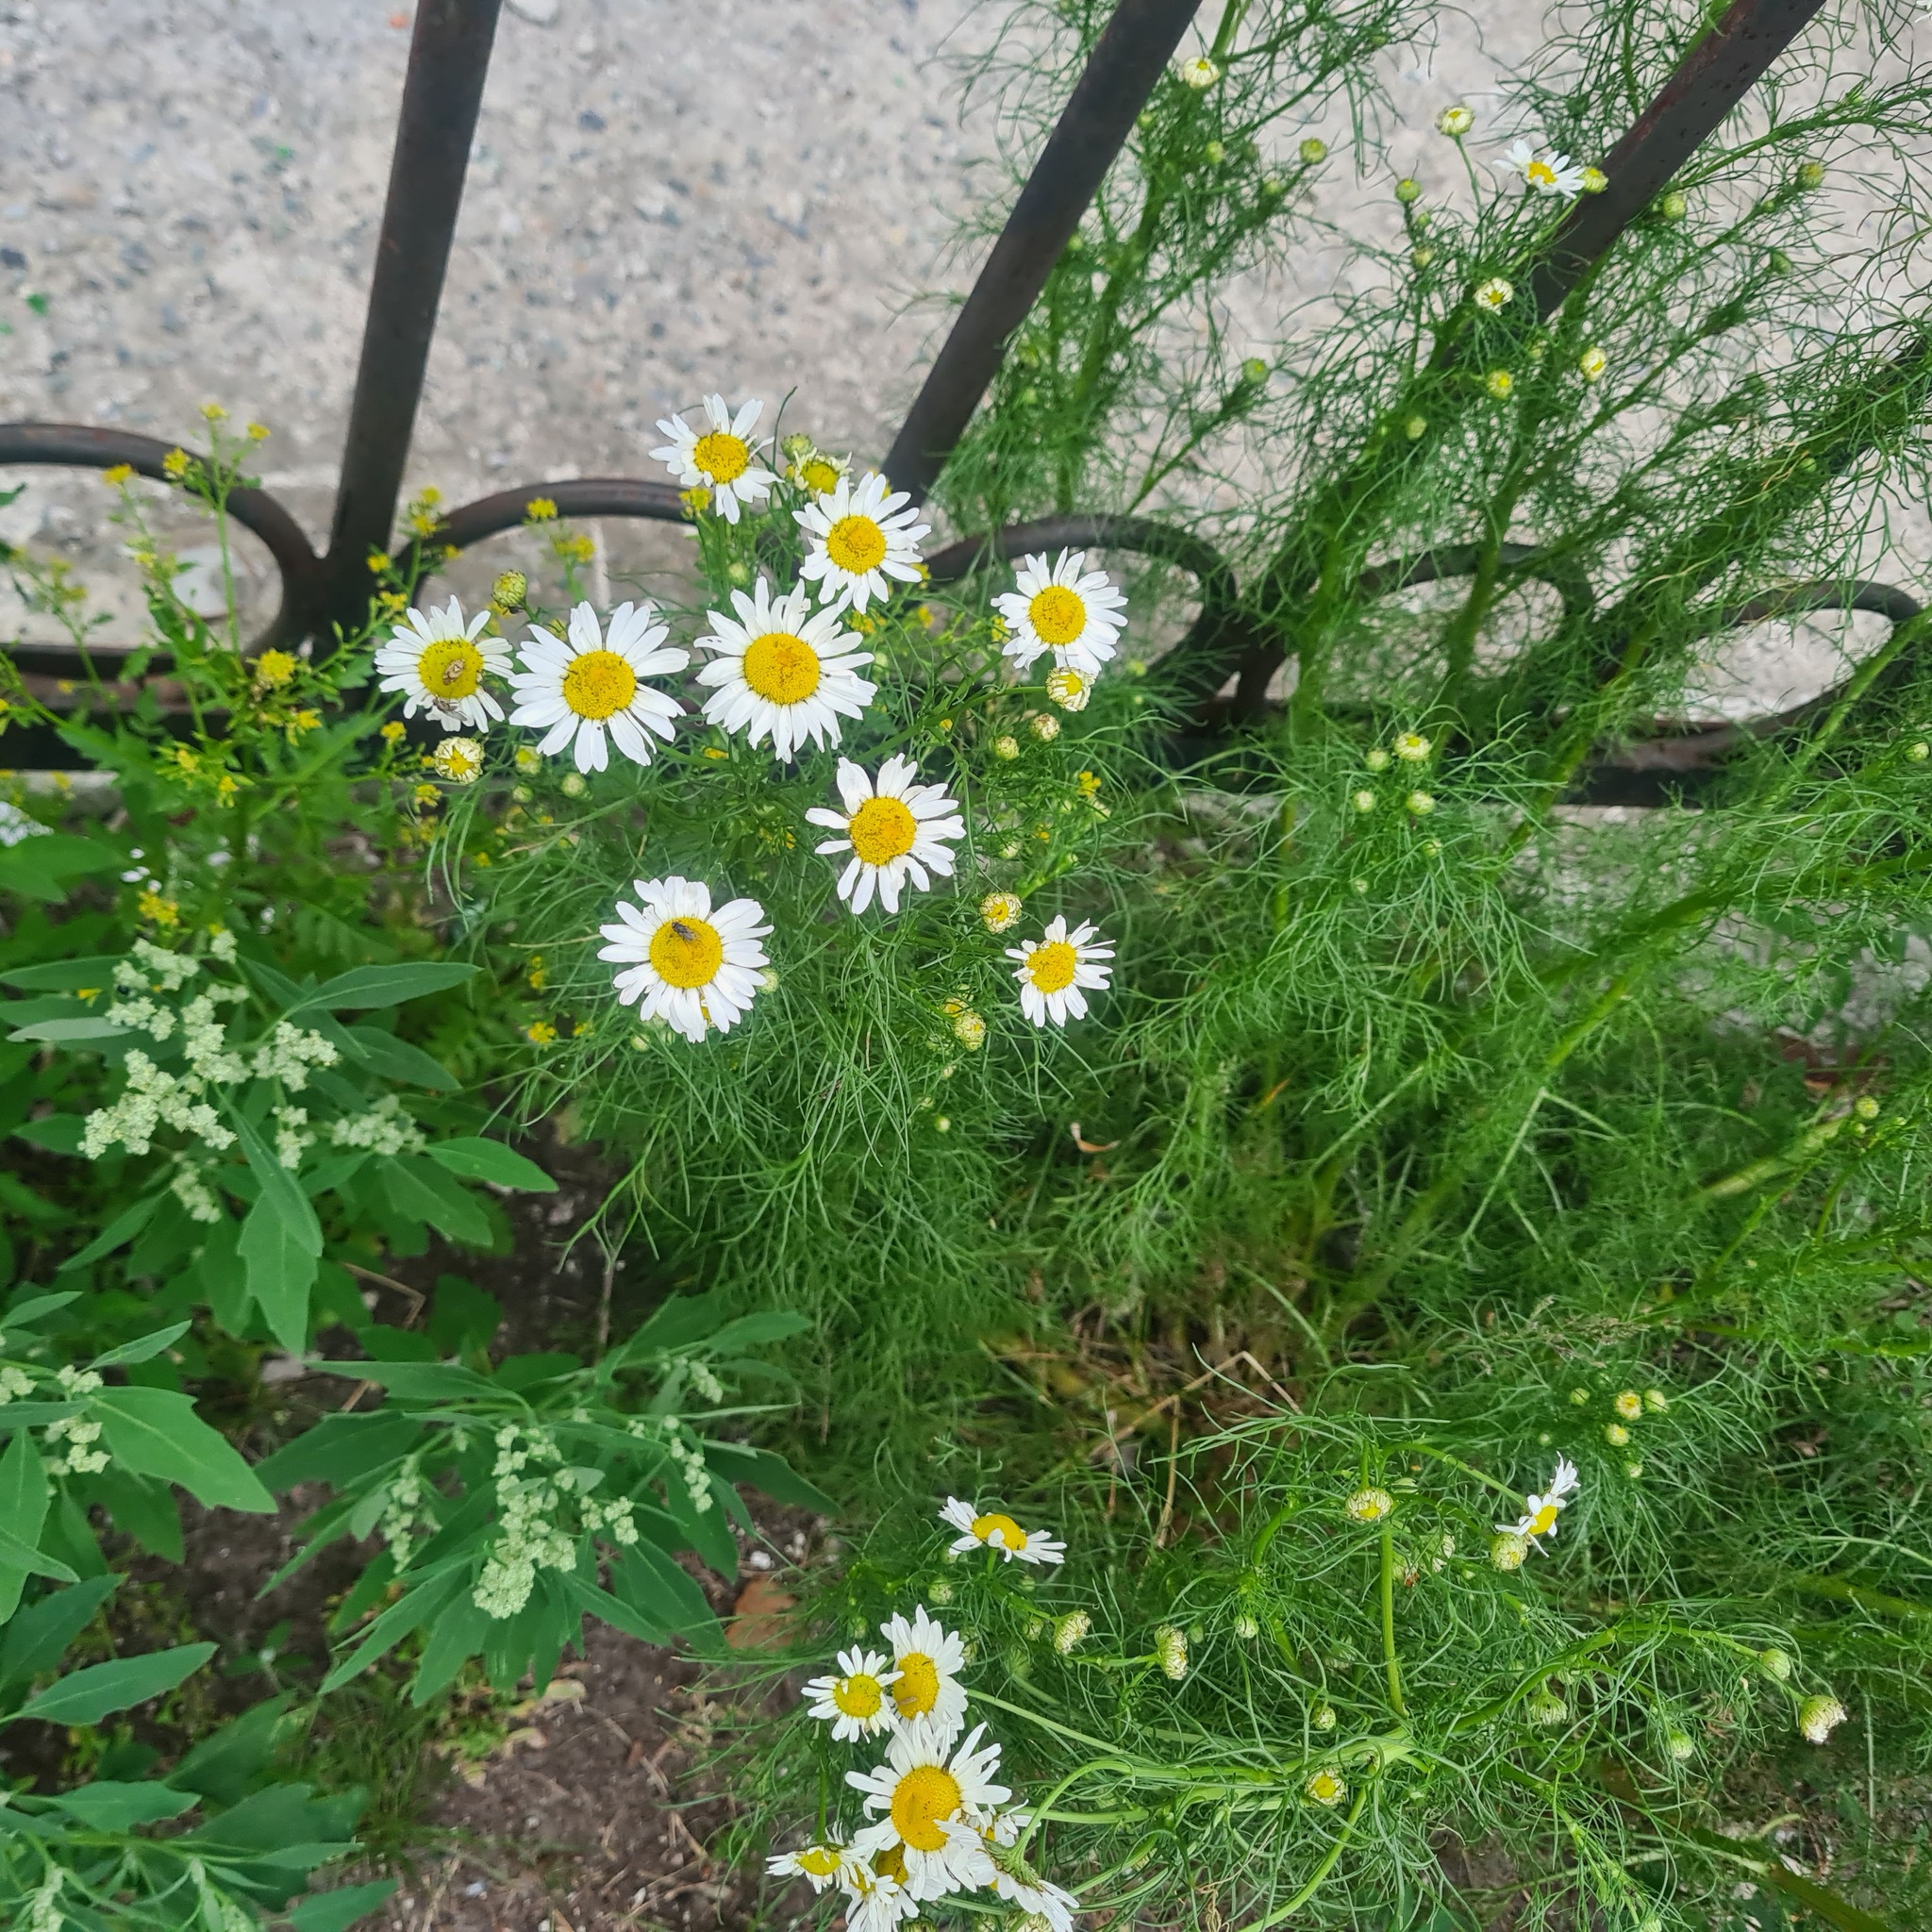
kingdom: Plantae
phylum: Tracheophyta
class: Magnoliopsida
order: Asterales
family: Asteraceae
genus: Tripleurospermum
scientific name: Tripleurospermum inodorum
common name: Scentless mayweed
